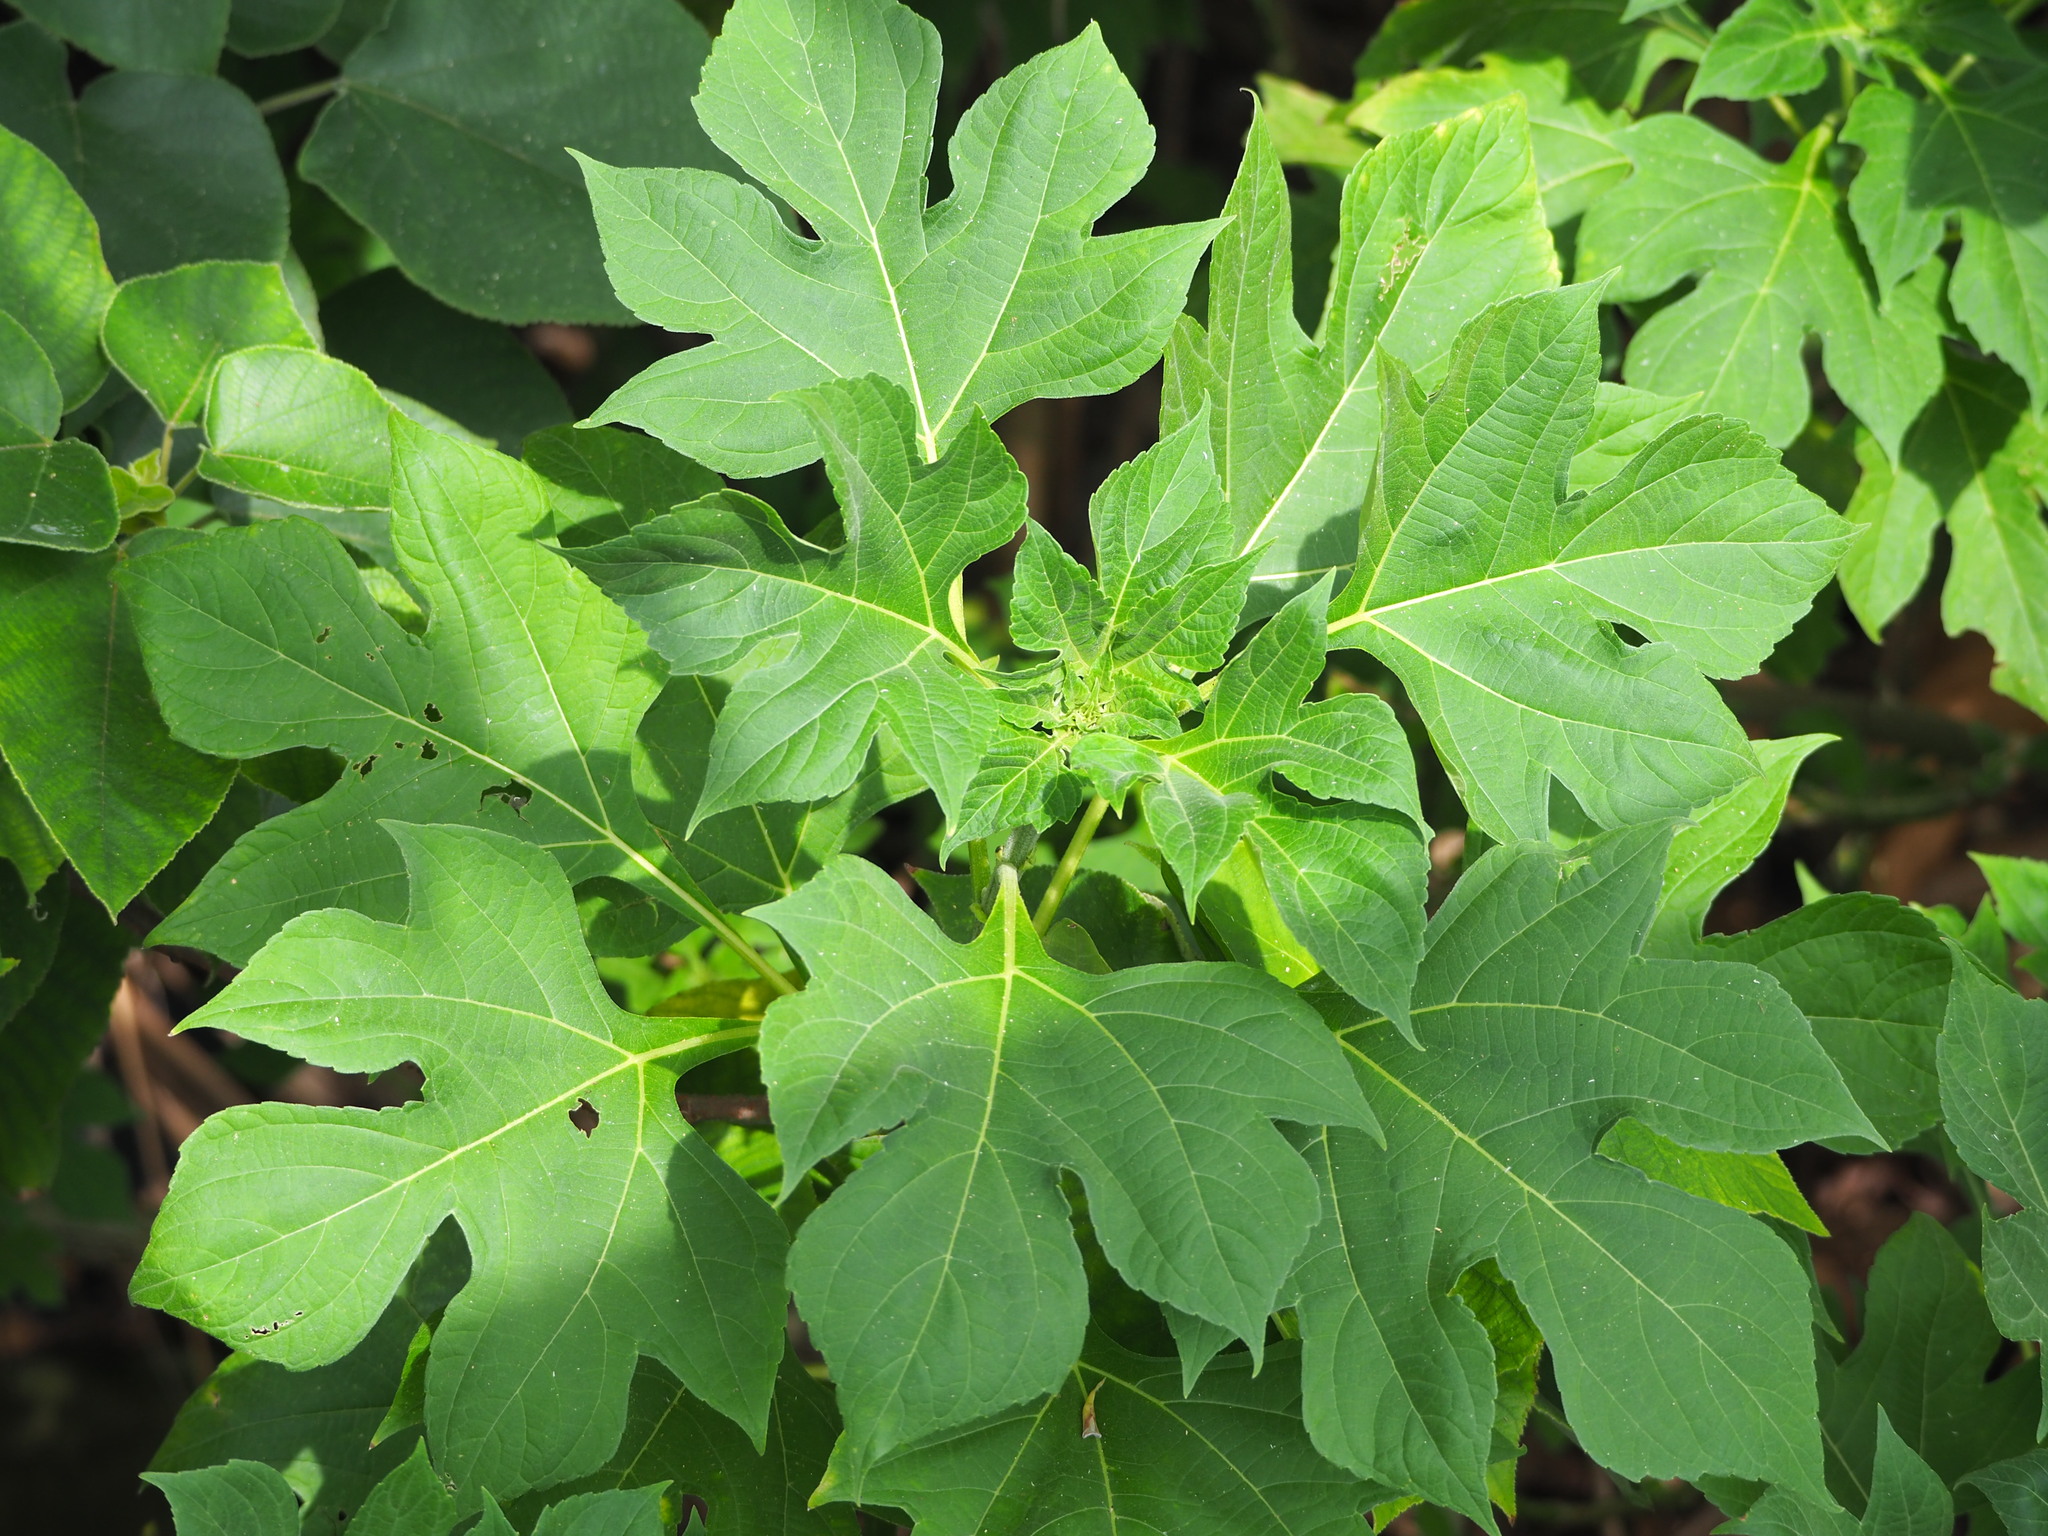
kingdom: Plantae
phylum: Tracheophyta
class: Magnoliopsida
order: Asterales
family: Asteraceae
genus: Tithonia
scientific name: Tithonia diversifolia
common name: Tree marigold
